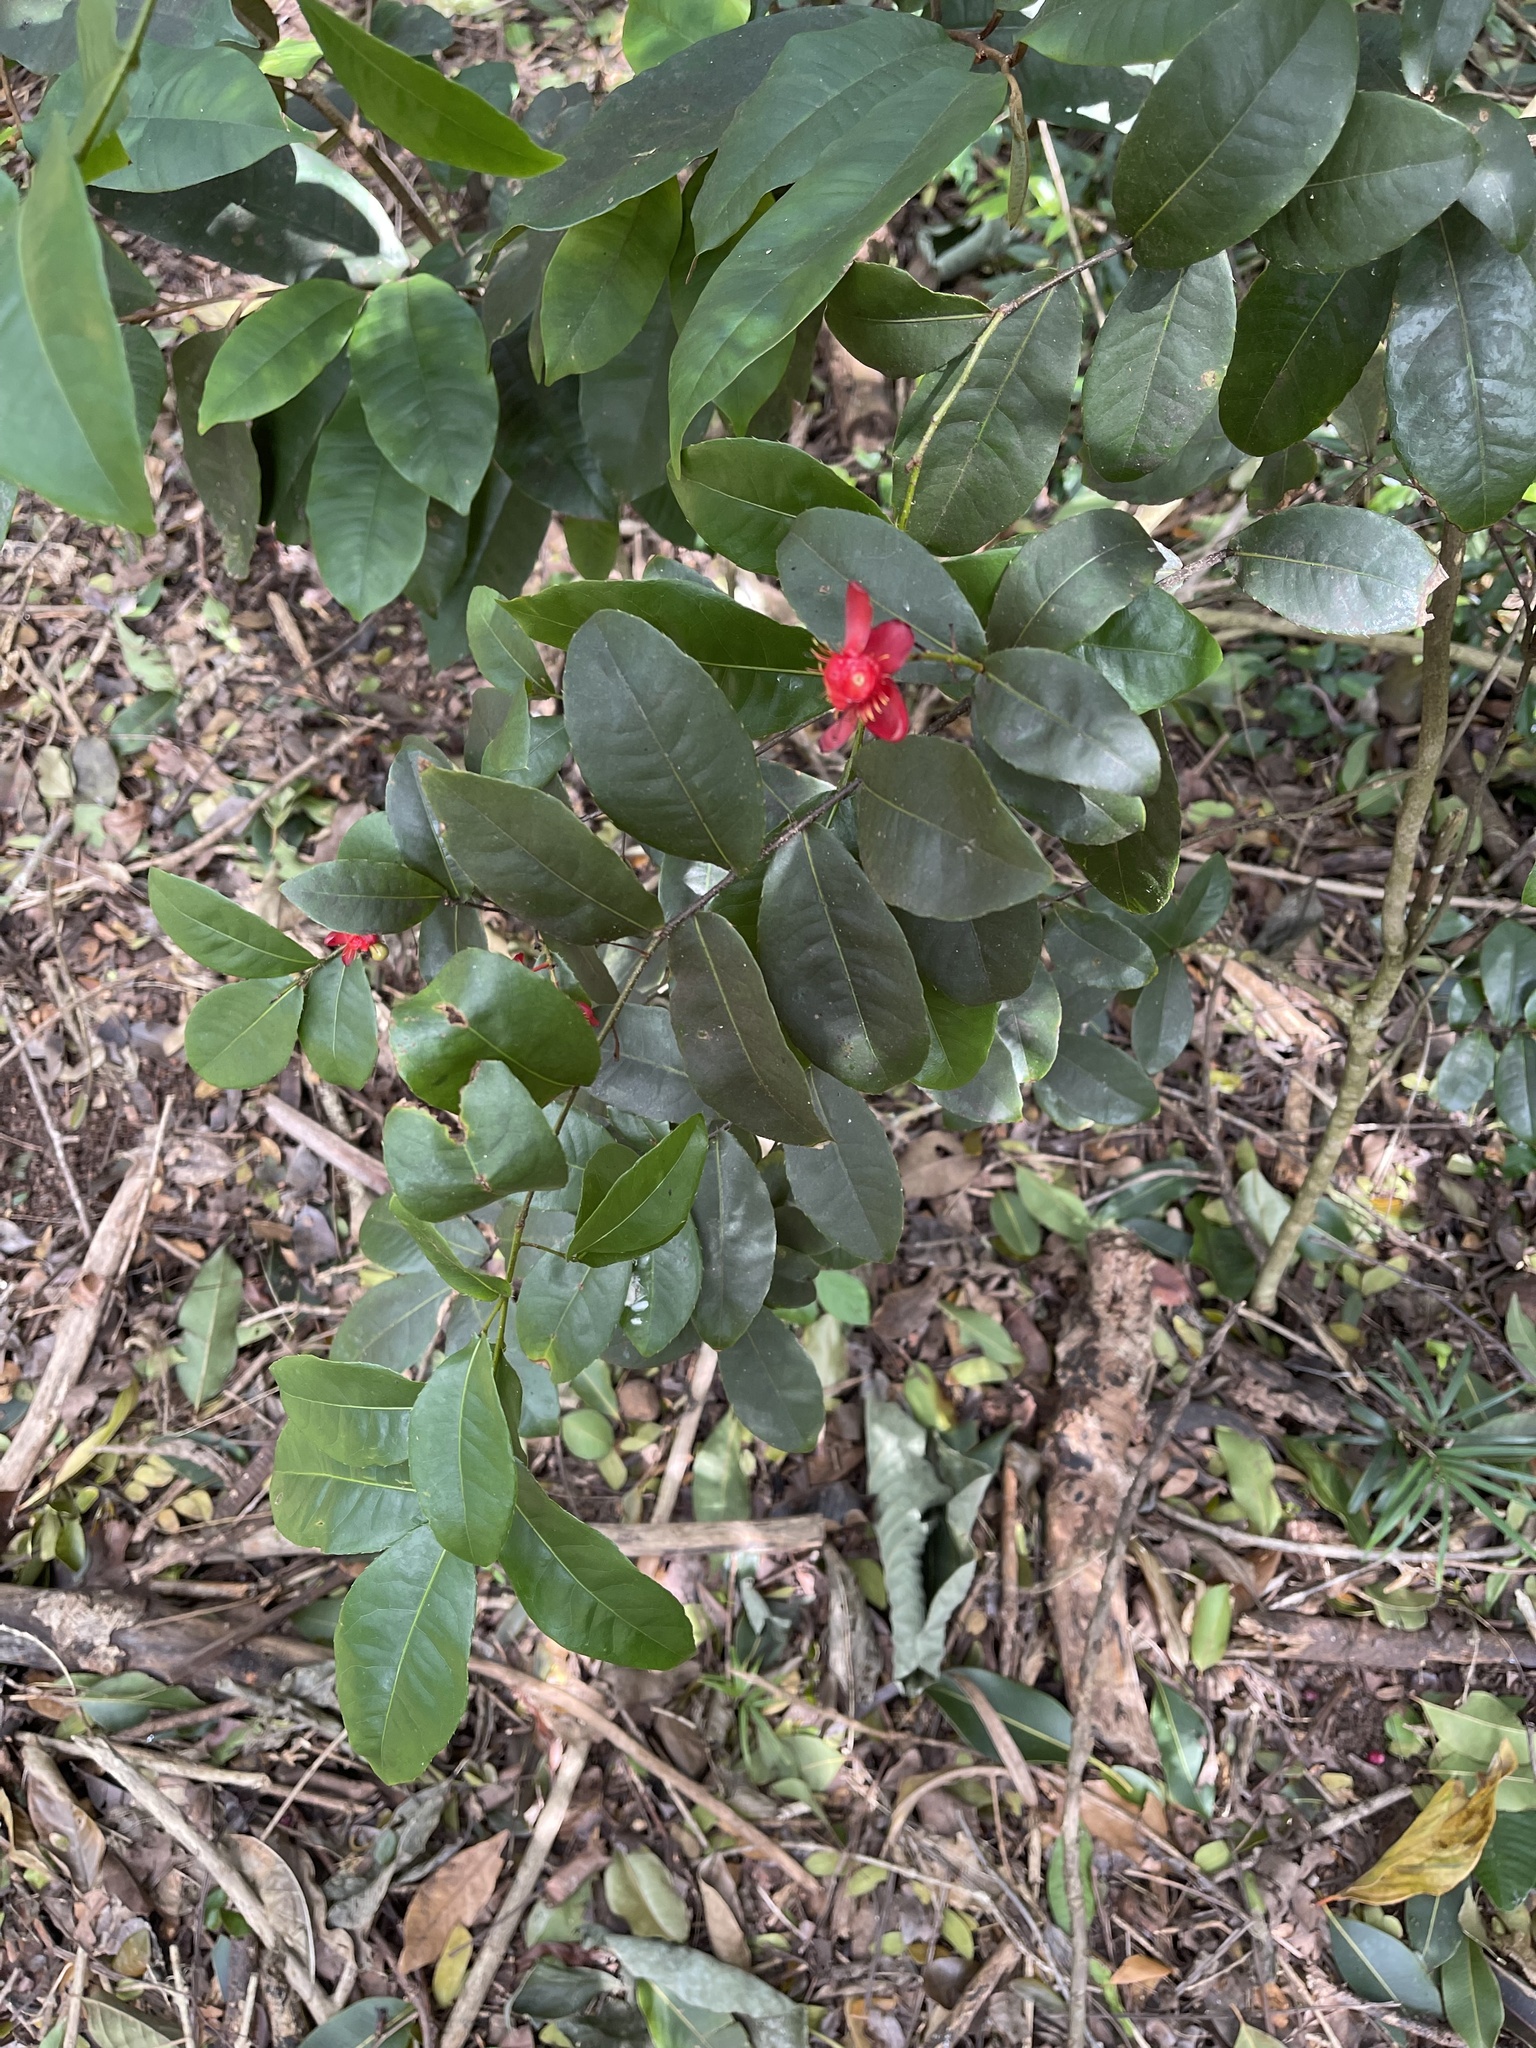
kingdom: Plantae
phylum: Tracheophyta
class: Magnoliopsida
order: Malpighiales
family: Ochnaceae
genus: Ochna
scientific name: Ochna thomasiana
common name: Thomas' bird's-eye bush
